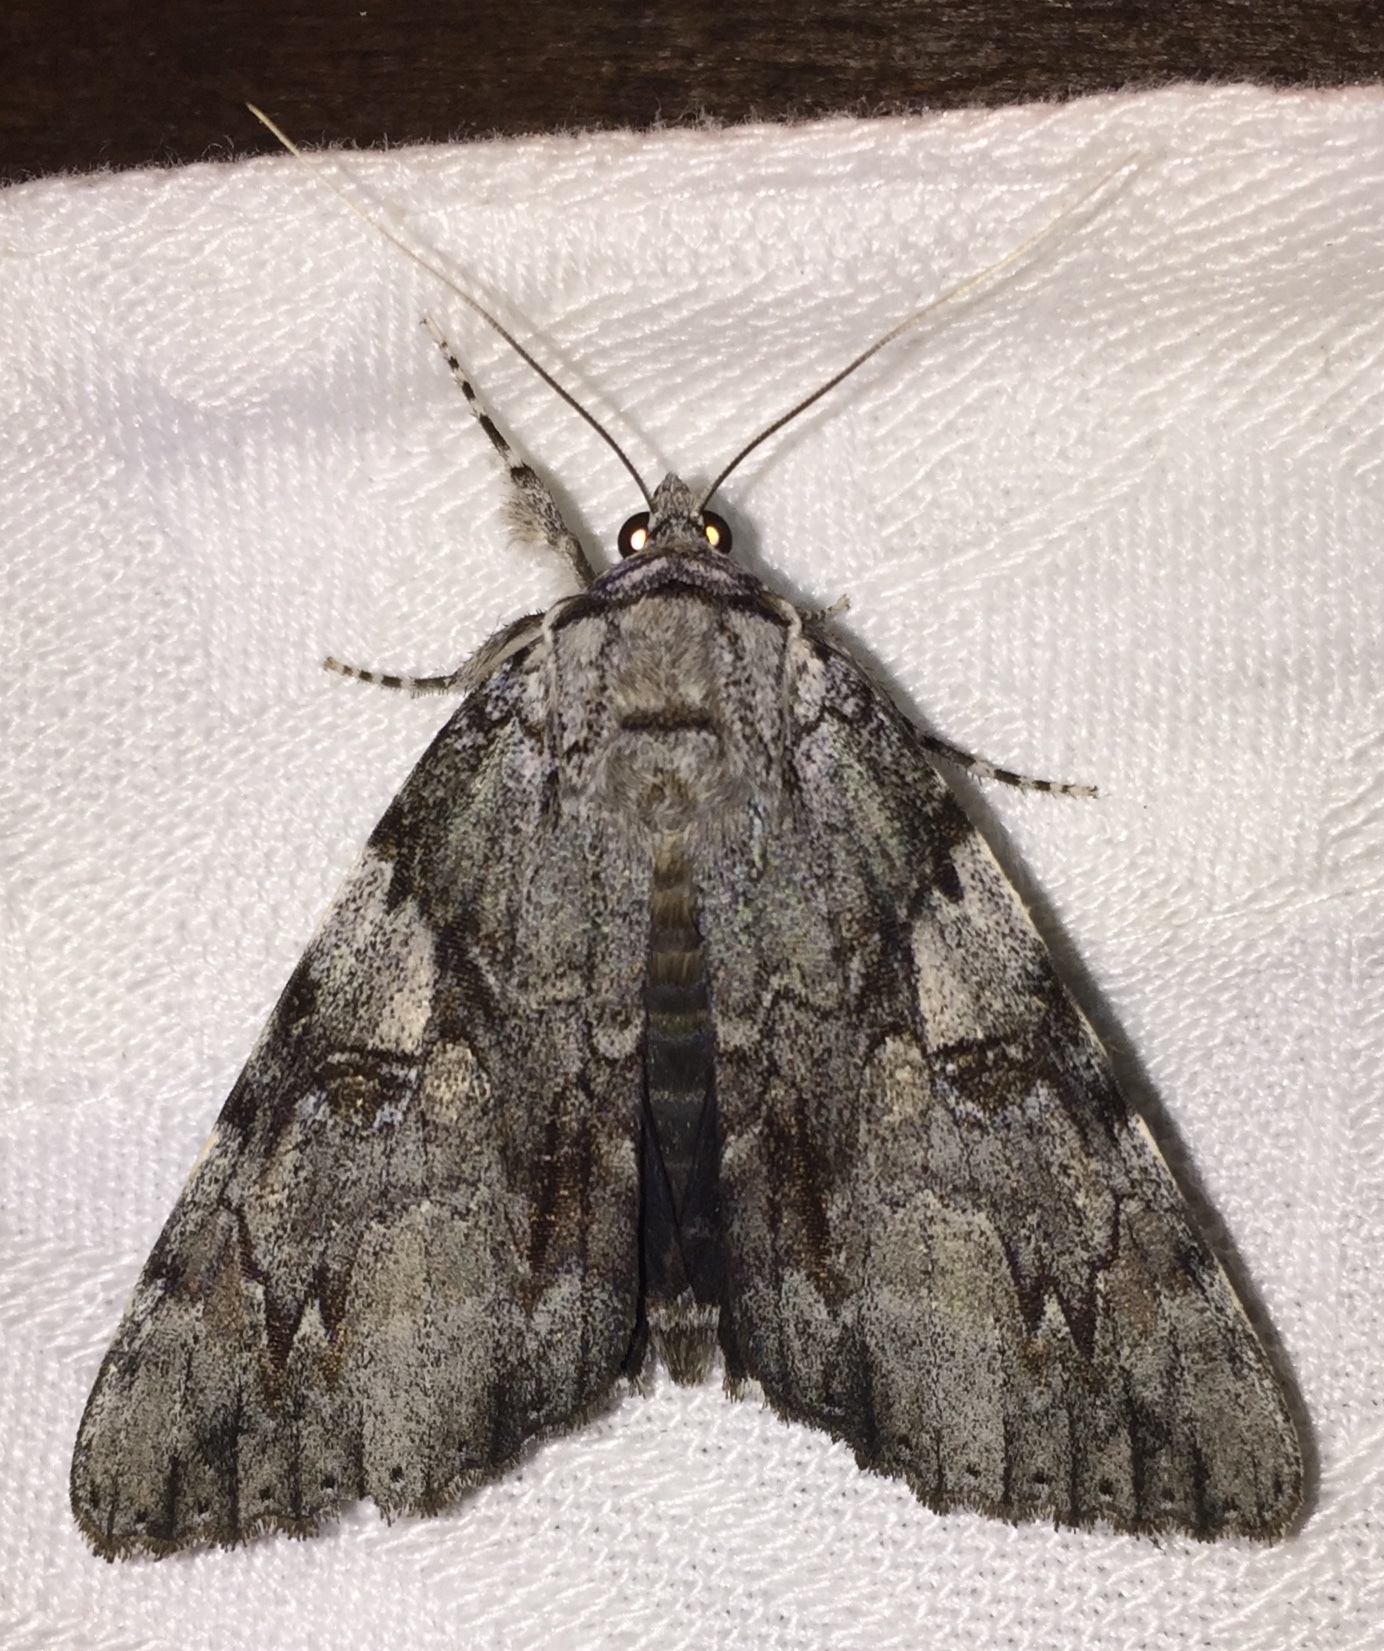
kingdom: Animalia
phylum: Arthropoda
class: Insecta
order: Lepidoptera
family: Erebidae
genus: Catocala
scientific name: Catocala dejecta
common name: Dejected underwing
